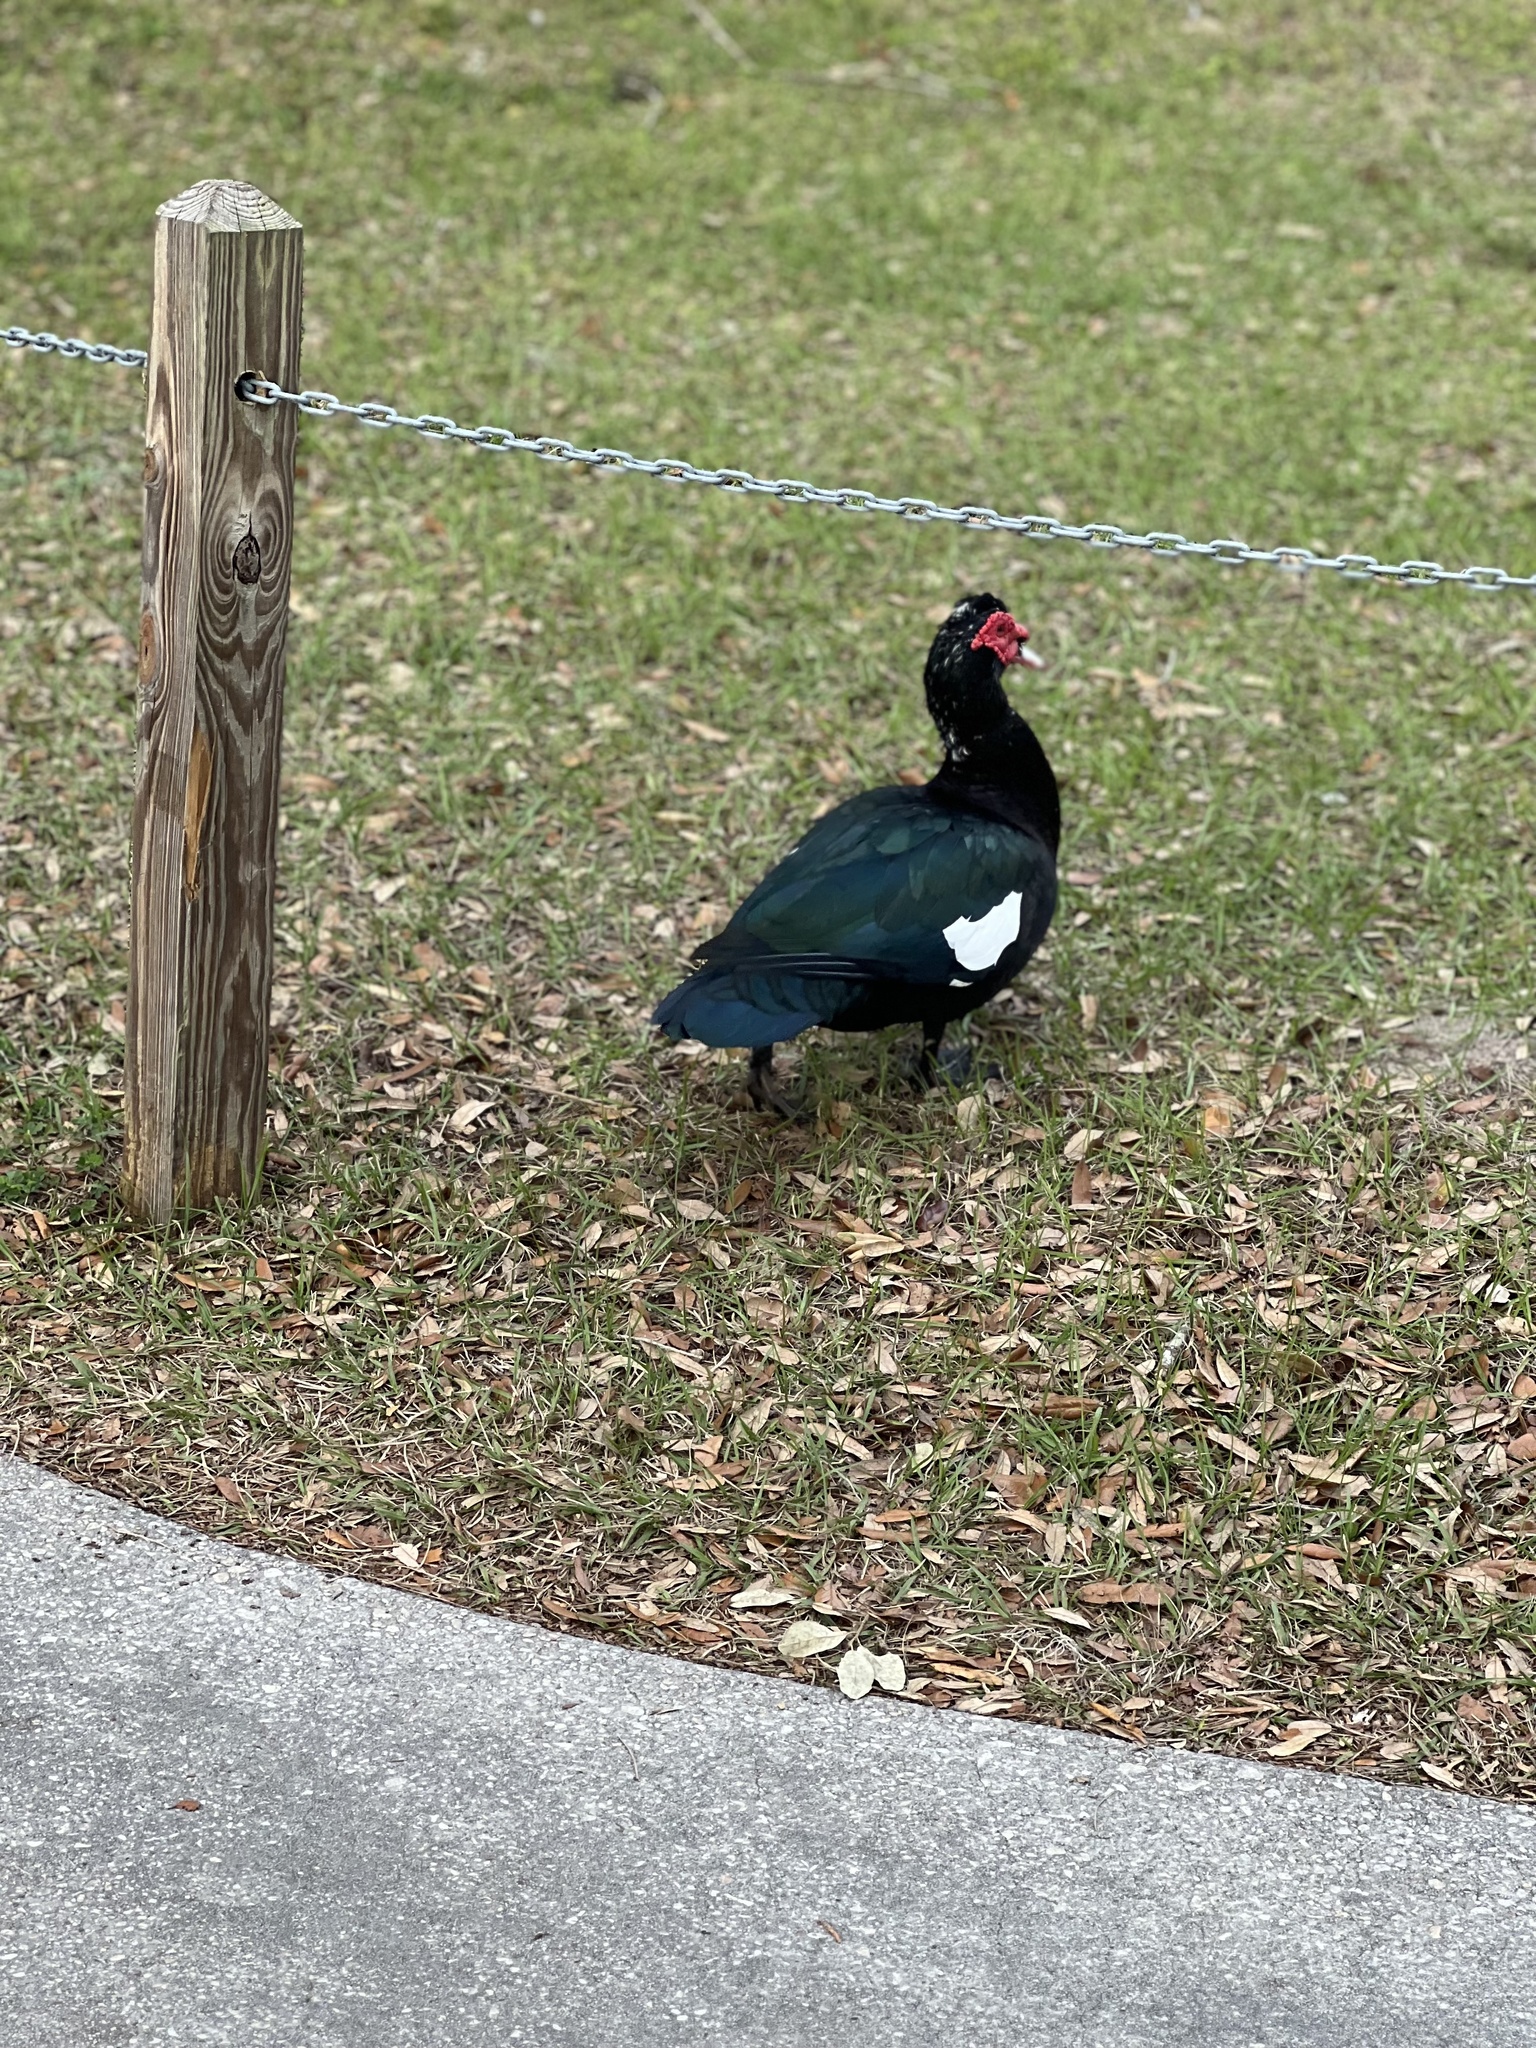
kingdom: Animalia
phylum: Chordata
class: Aves
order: Anseriformes
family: Anatidae
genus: Cairina
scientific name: Cairina moschata
